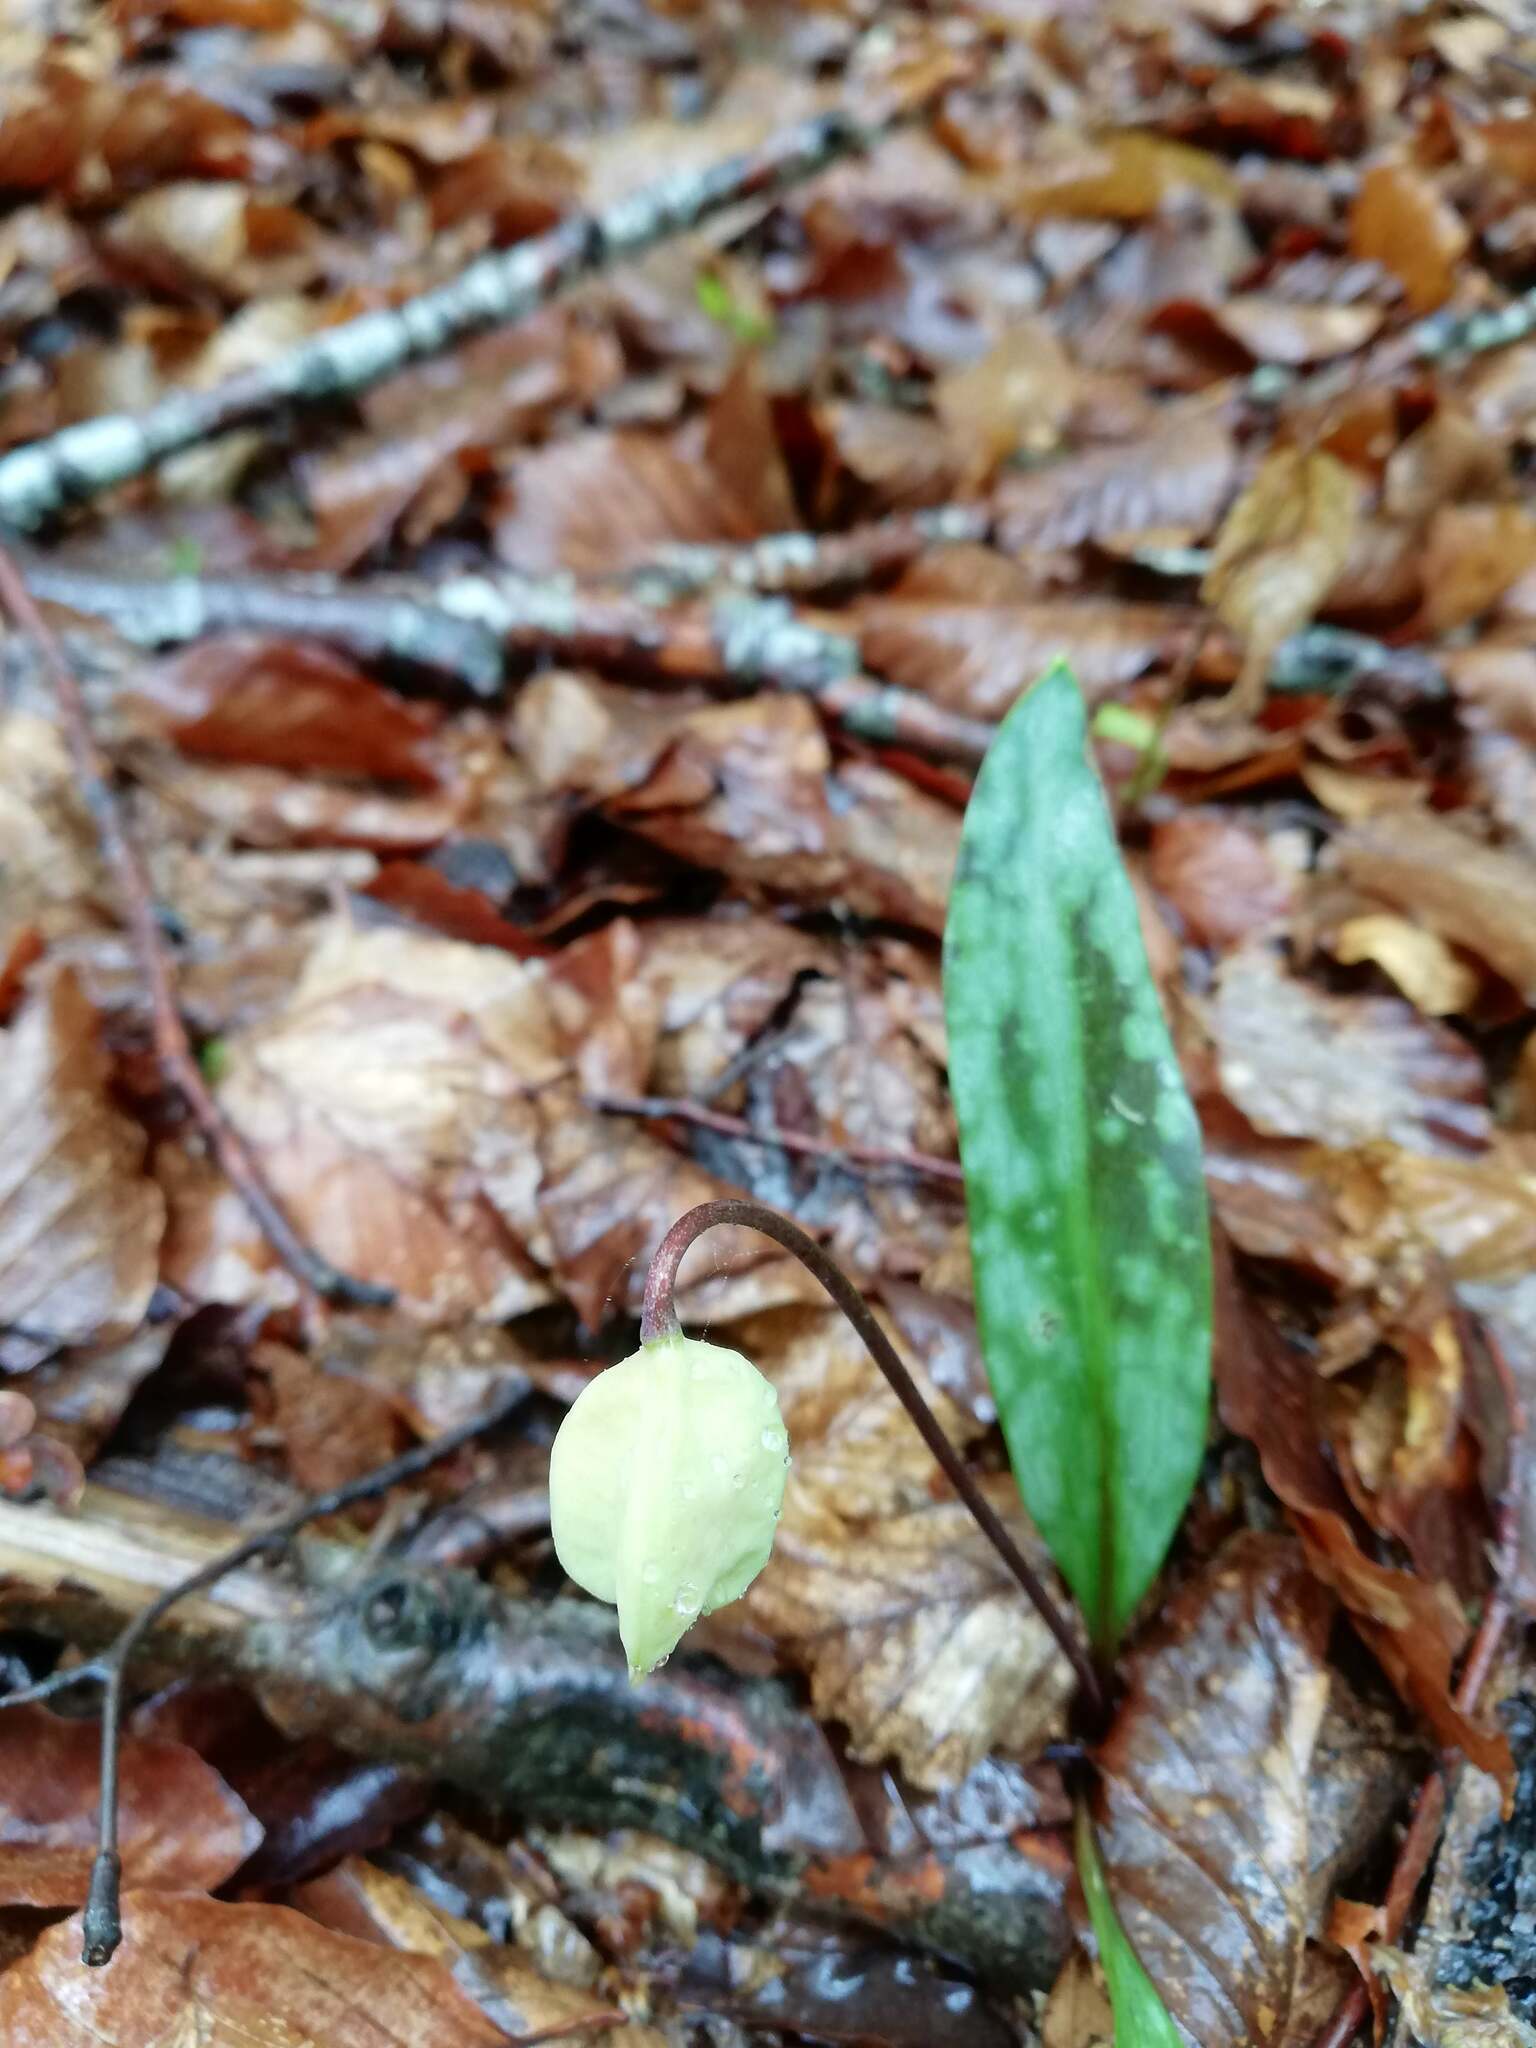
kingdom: Plantae
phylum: Tracheophyta
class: Liliopsida
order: Liliales
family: Liliaceae
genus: Erythronium
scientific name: Erythronium dens-canis
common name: Dog's-tooth-violet
